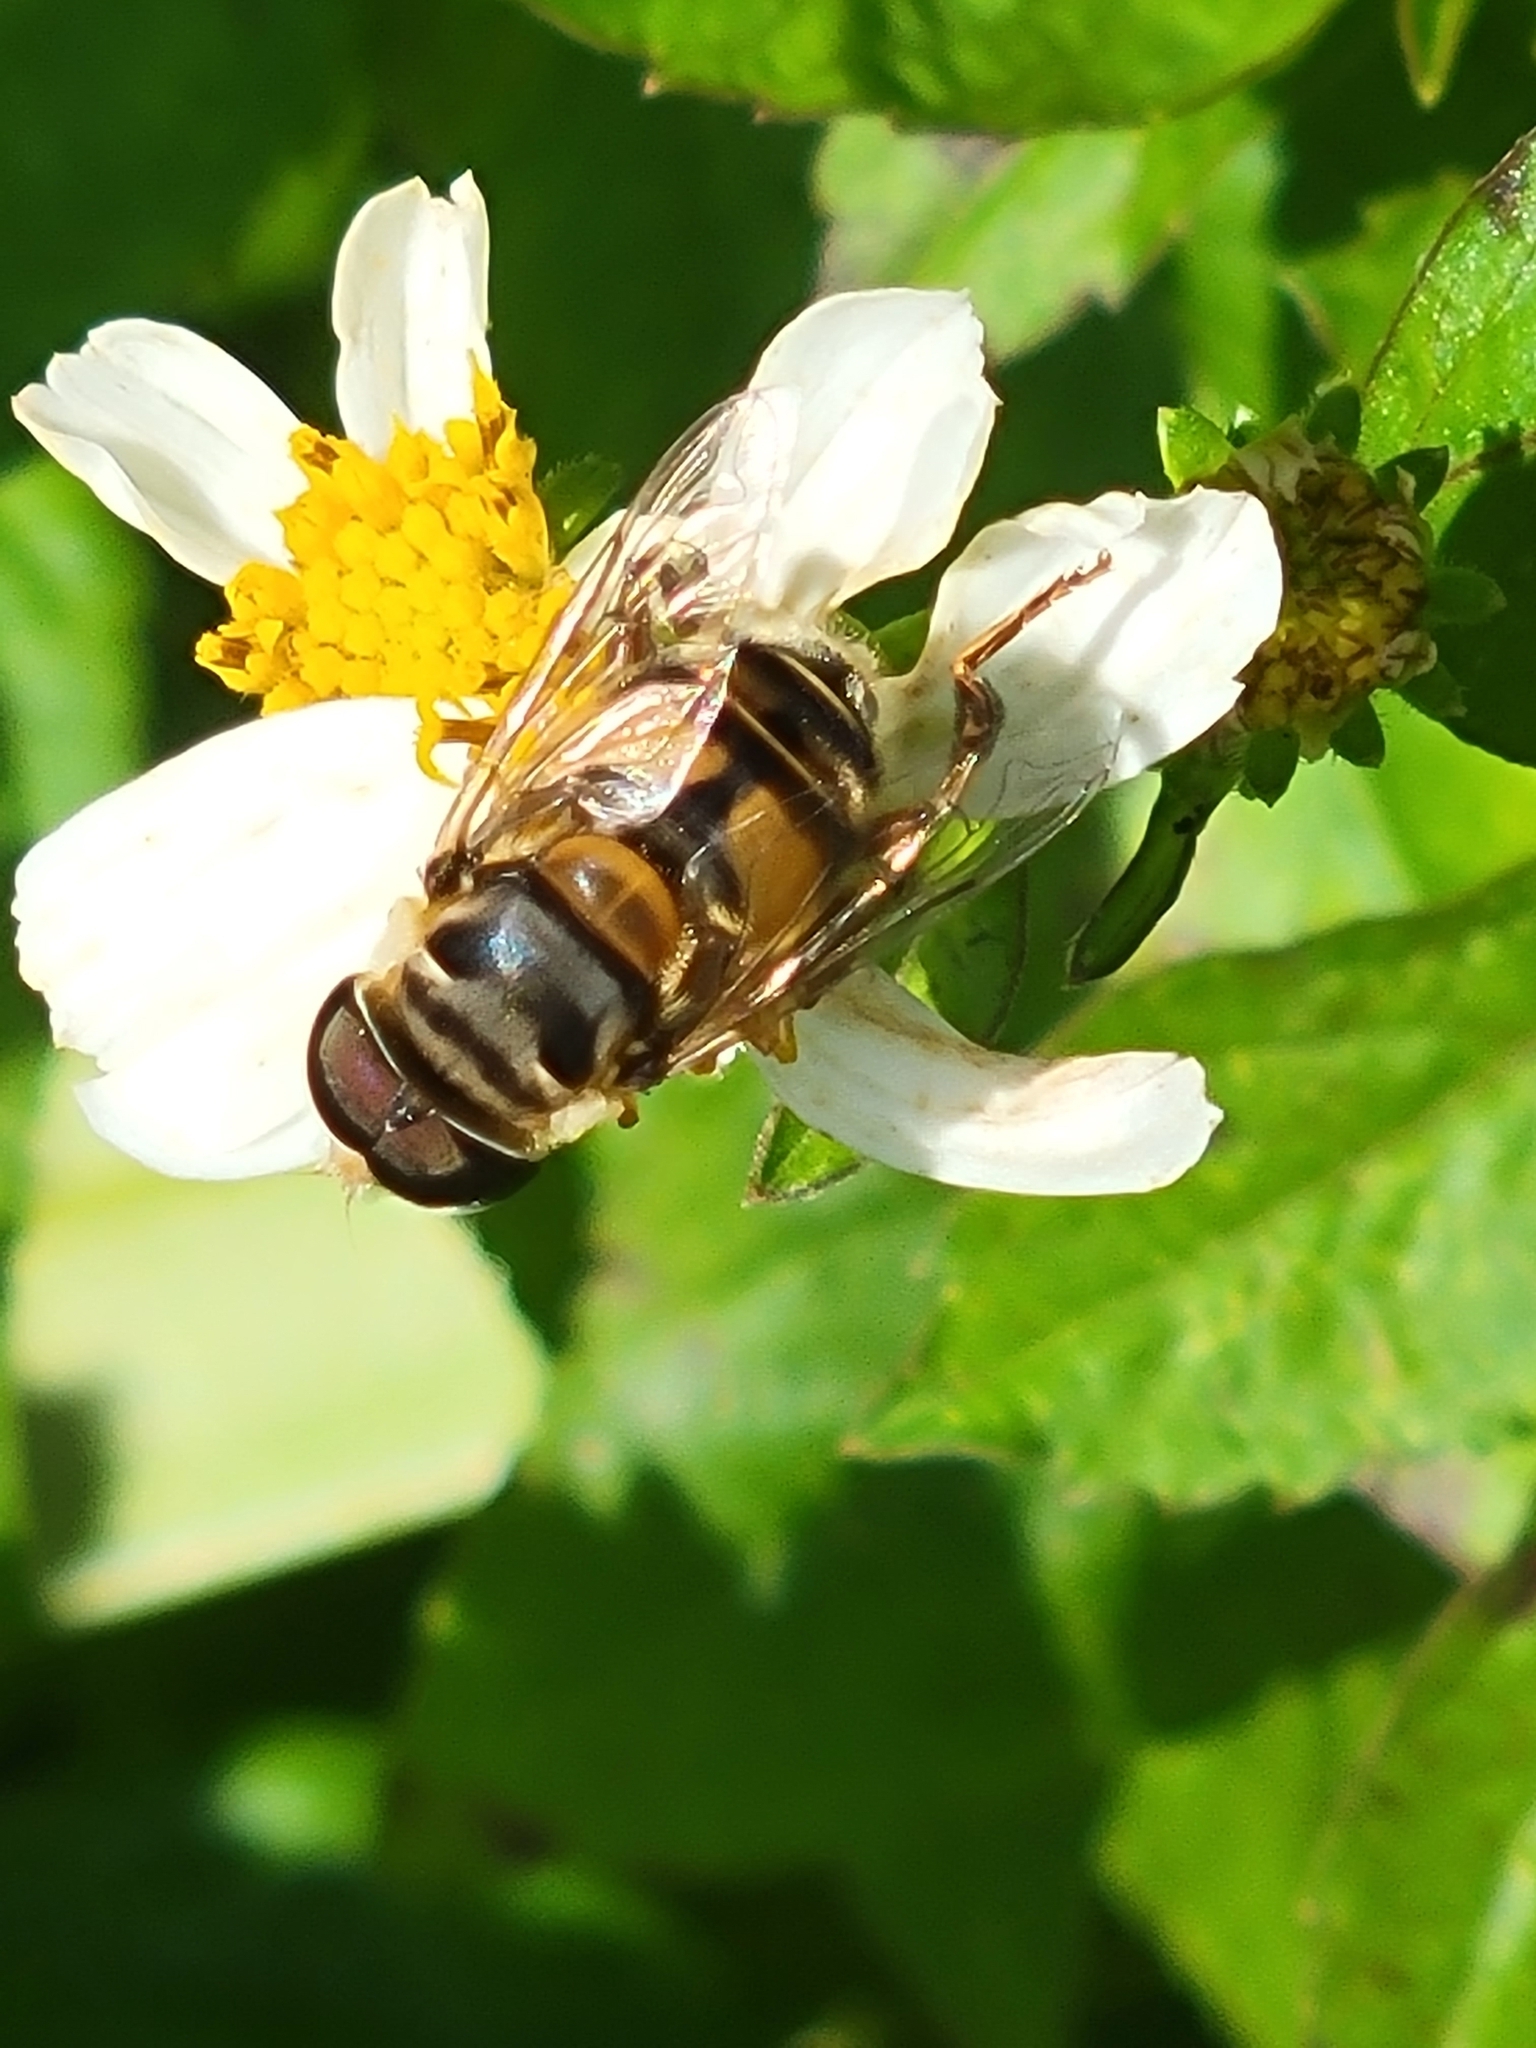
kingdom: Animalia
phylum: Arthropoda
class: Insecta
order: Diptera
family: Syrphidae
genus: Palpada
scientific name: Palpada vinetorum
